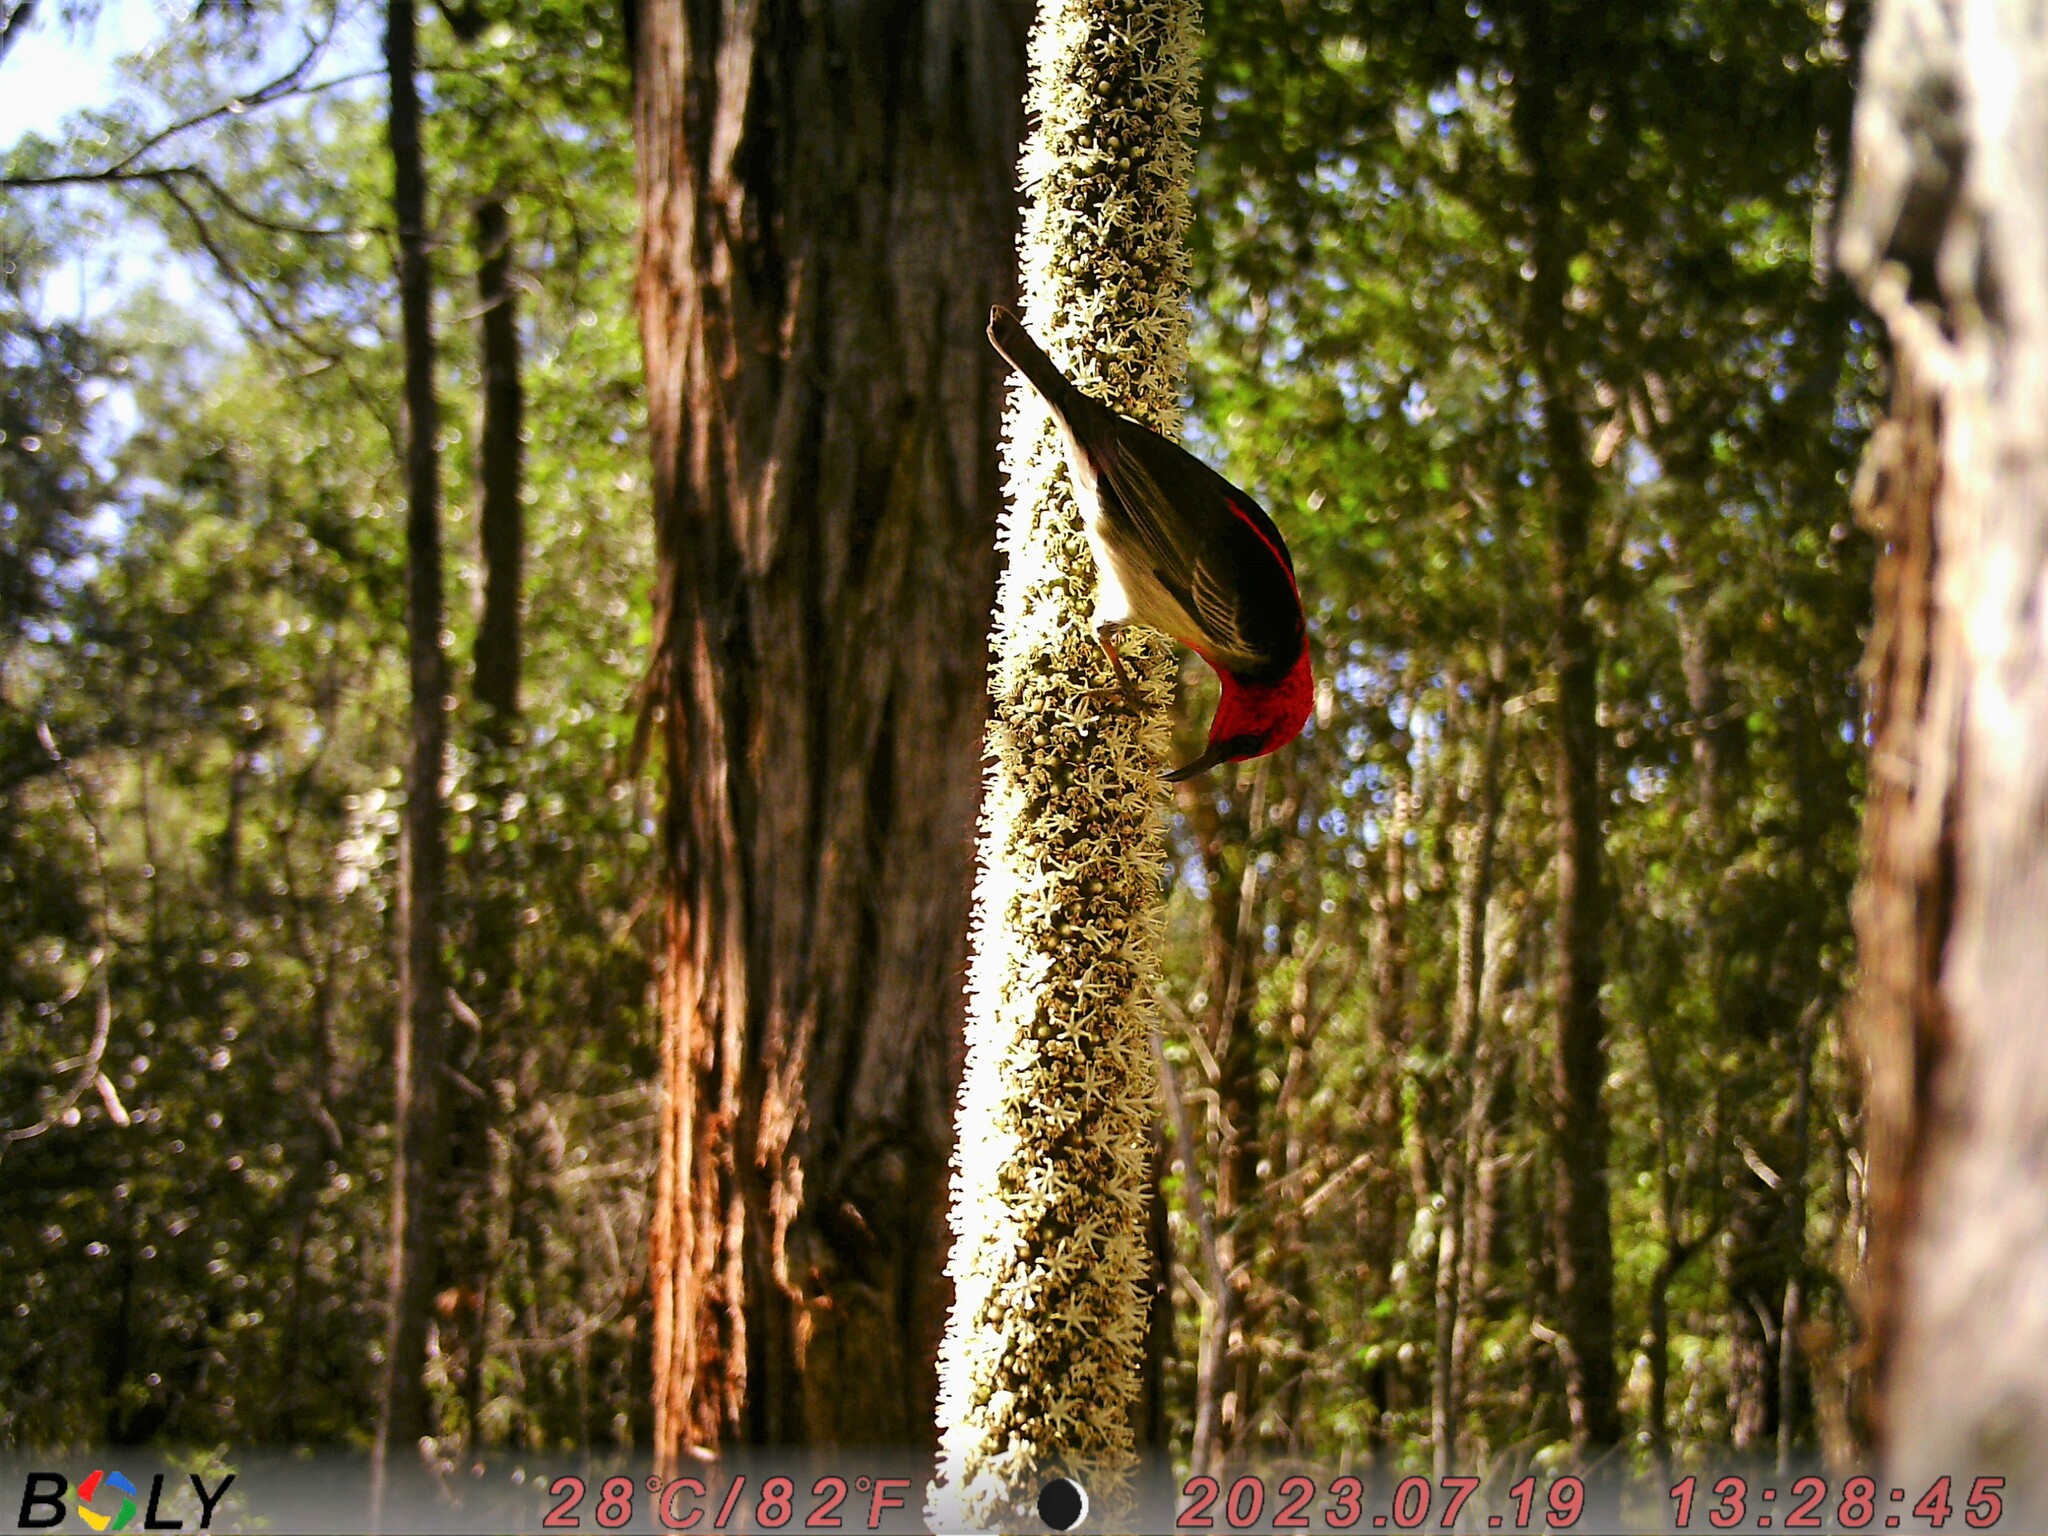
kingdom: Animalia
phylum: Chordata
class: Aves
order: Passeriformes
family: Meliphagidae
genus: Myzomela
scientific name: Myzomela sanguinolenta
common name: Scarlet myzomela
